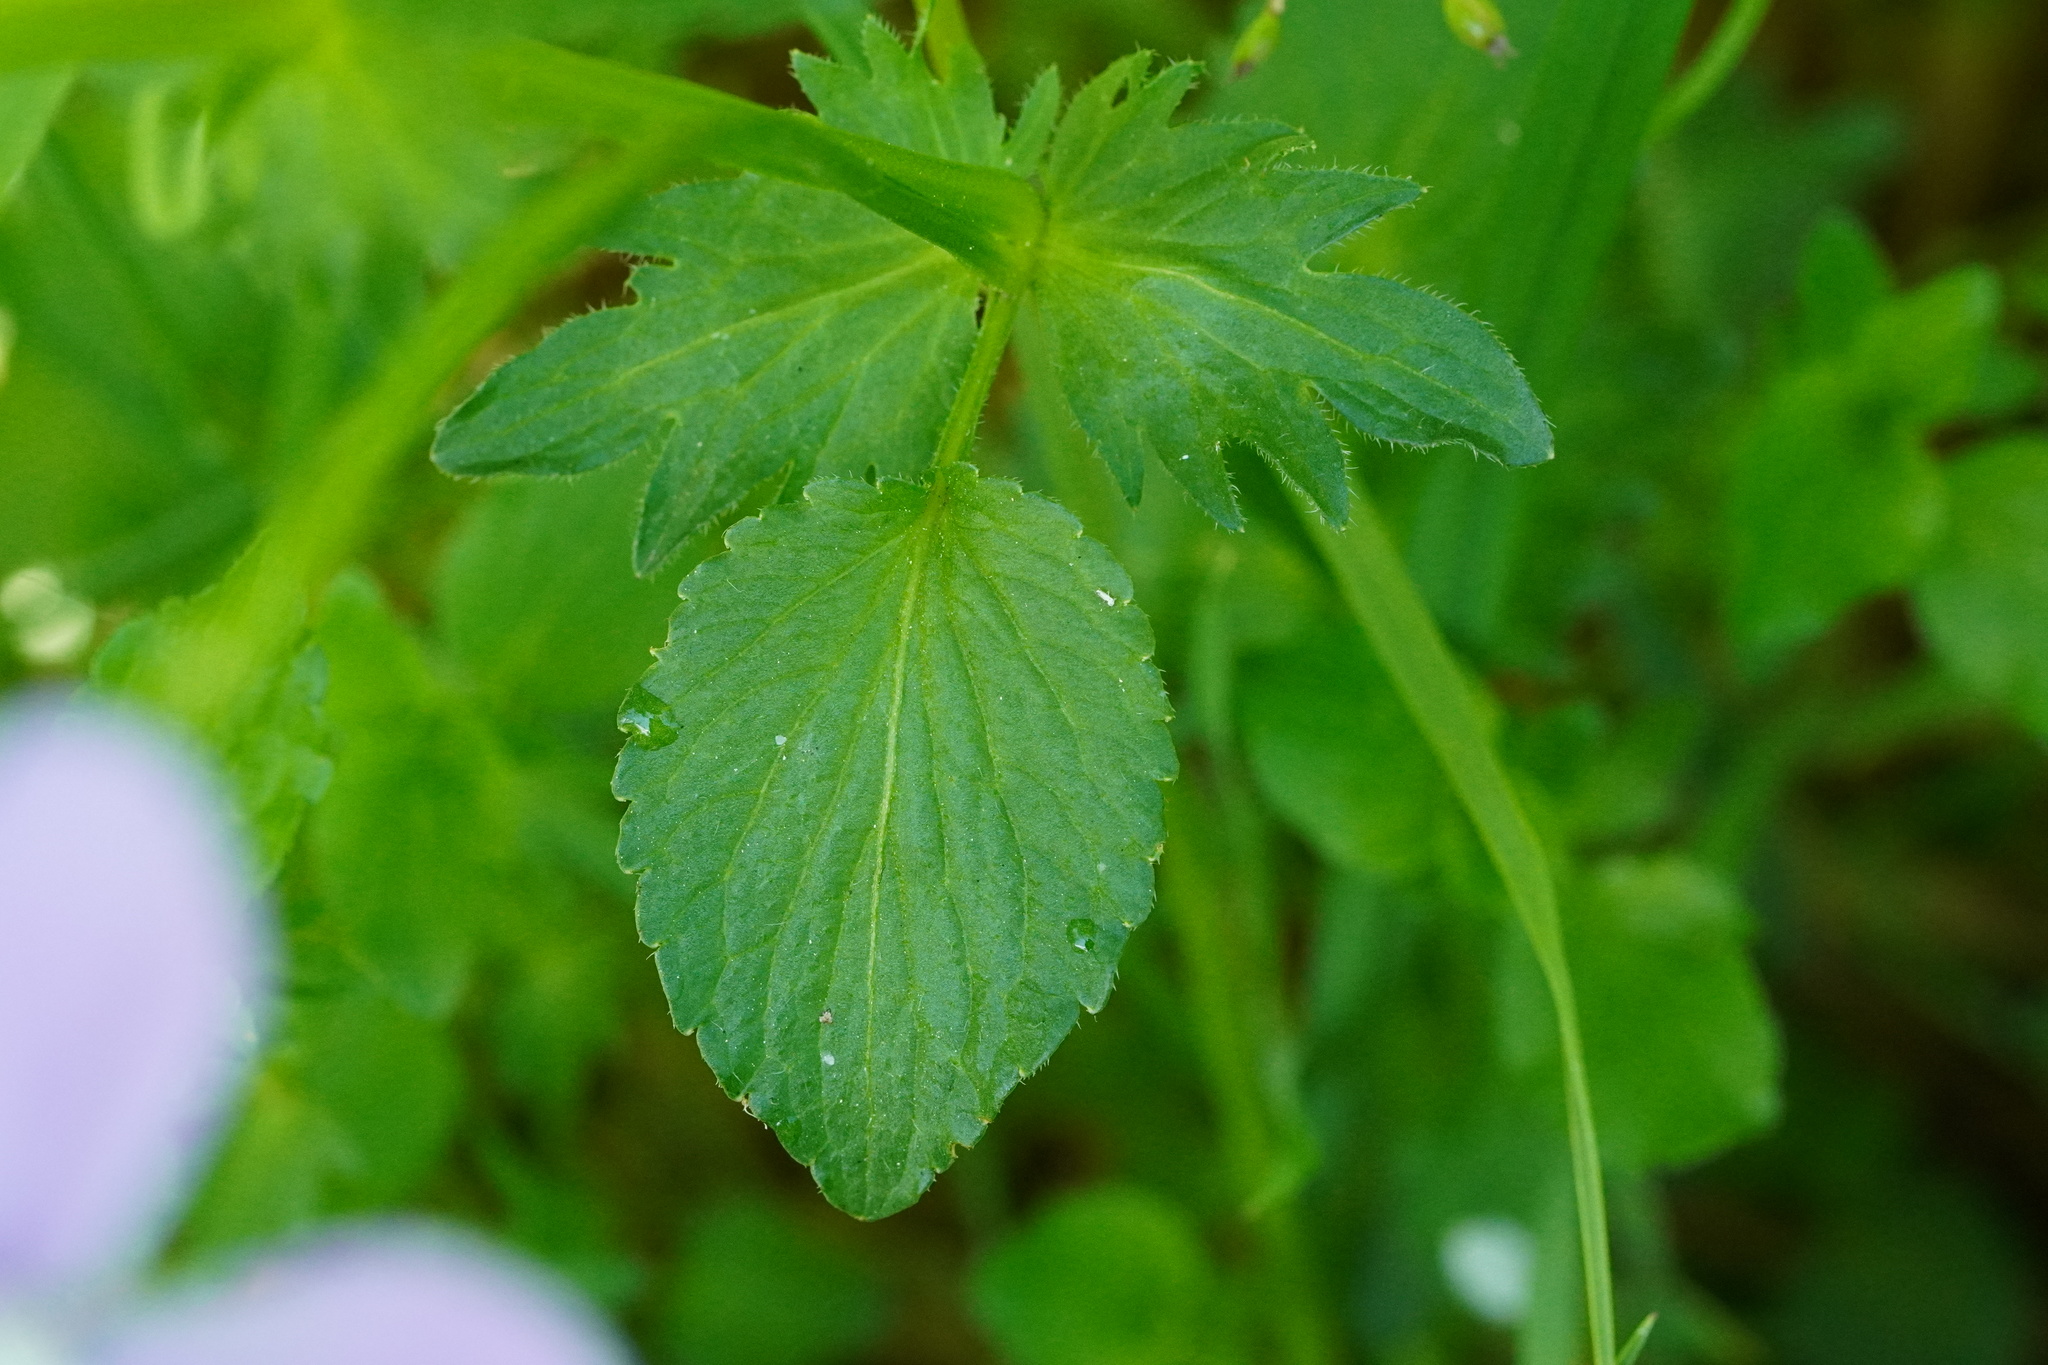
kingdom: Plantae
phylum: Tracheophyta
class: Magnoliopsida
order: Malpighiales
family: Violaceae
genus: Viola
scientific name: Viola cornuta
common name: Horned pansy
